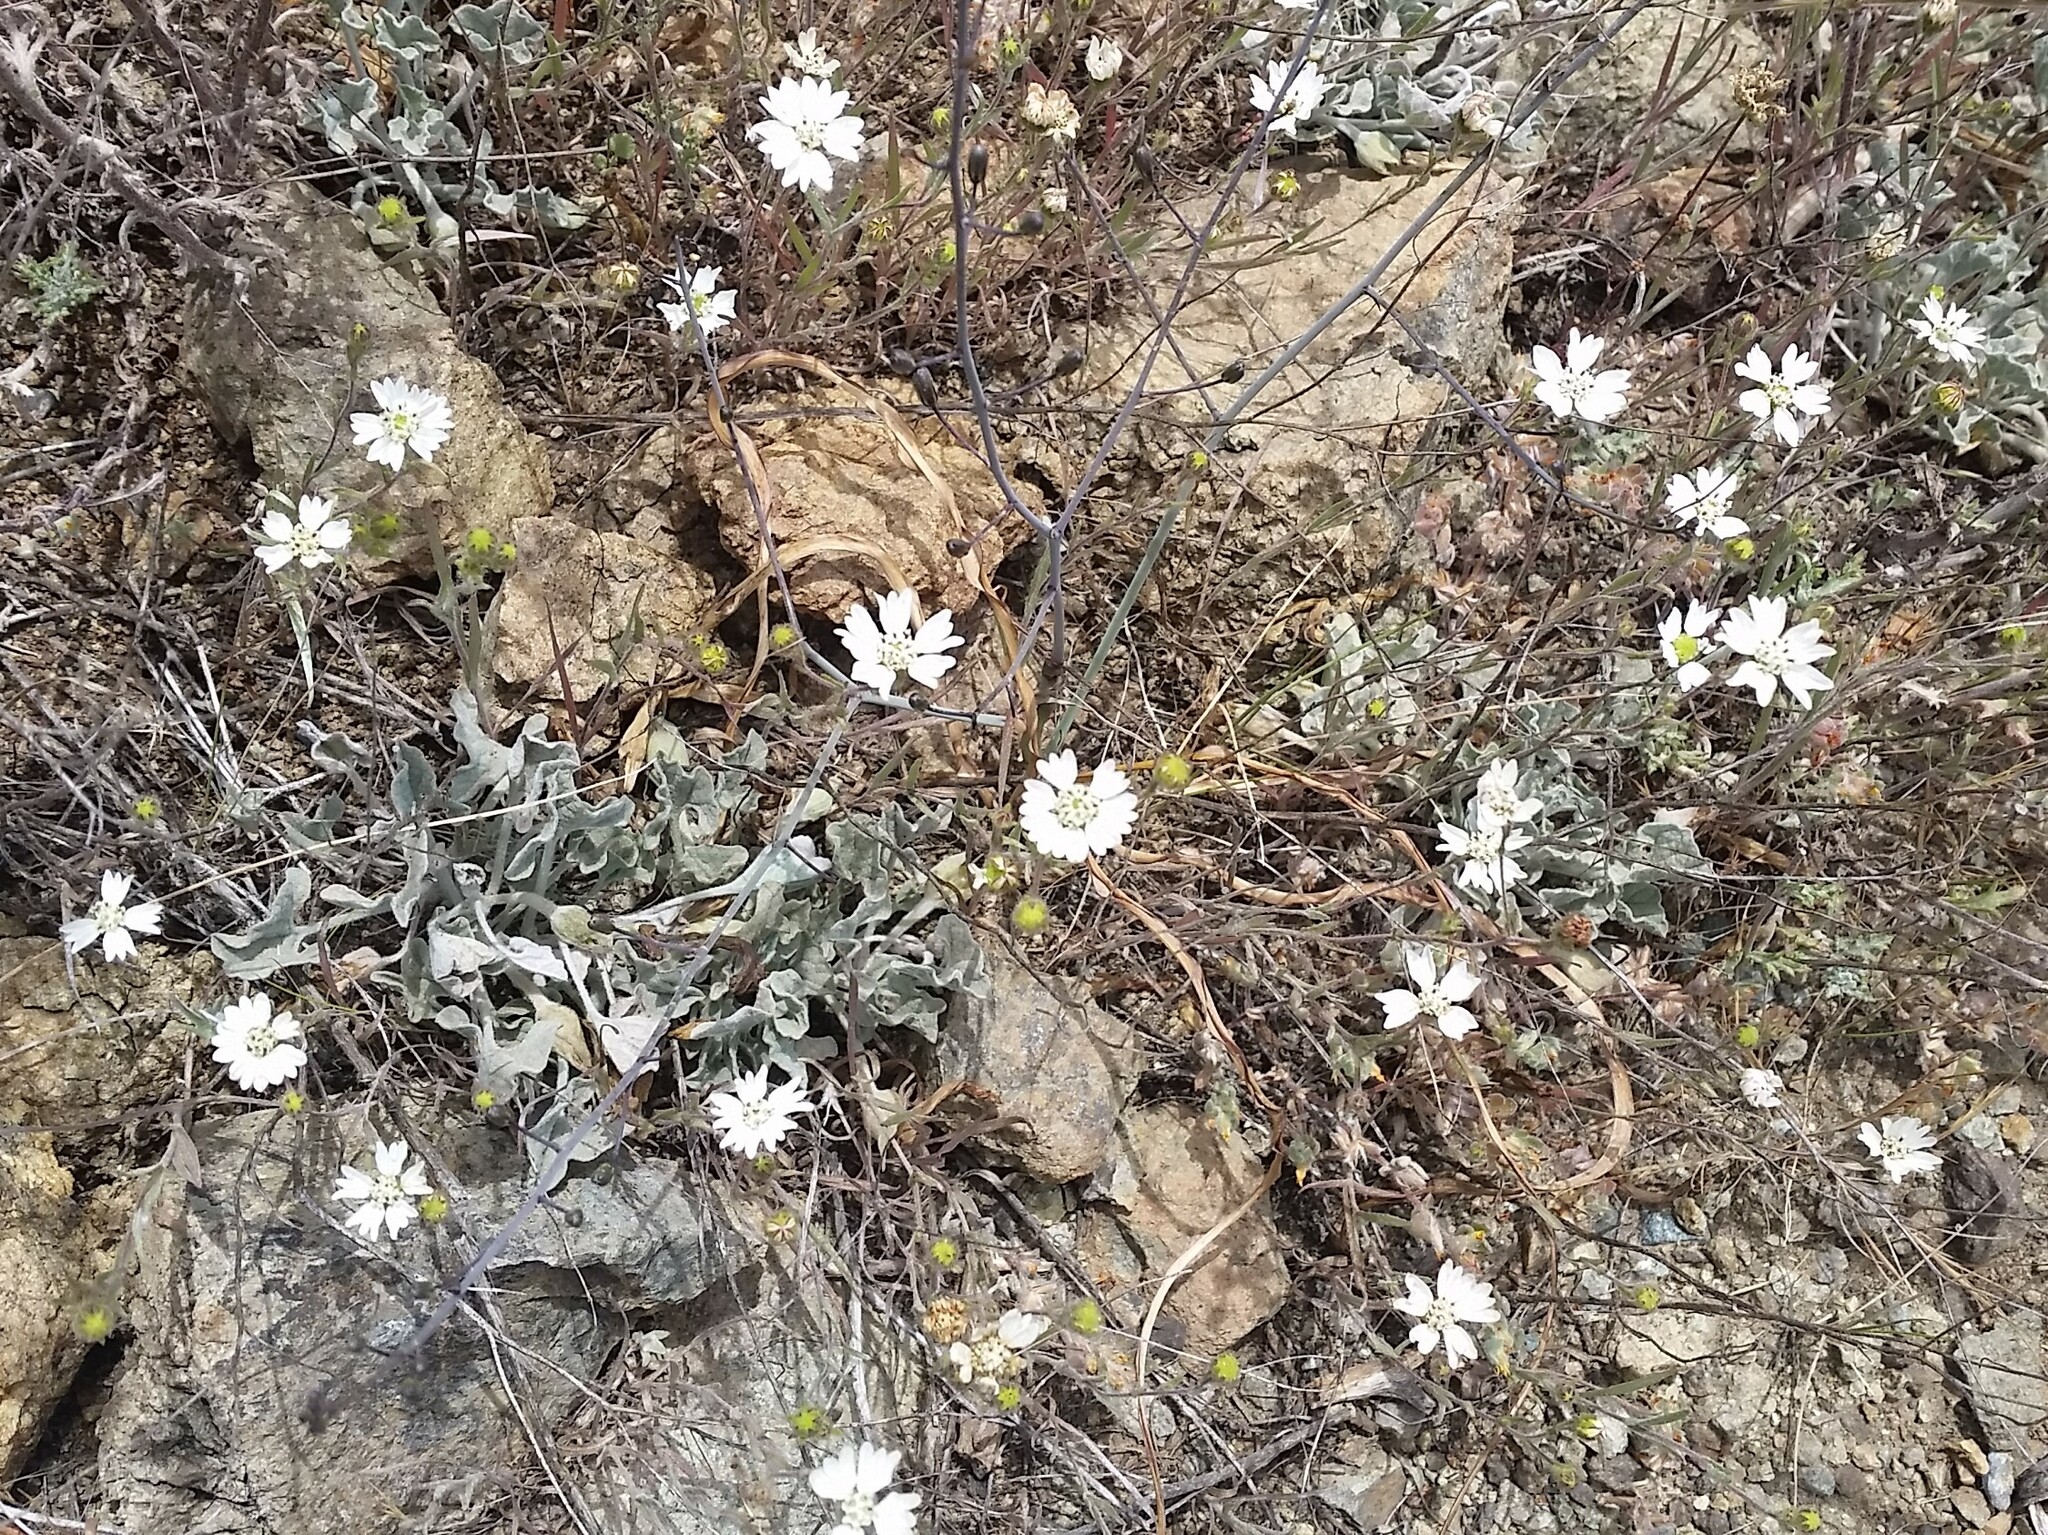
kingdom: Plantae
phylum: Tracheophyta
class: Magnoliopsida
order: Asterales
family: Asteraceae
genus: Hemizonia
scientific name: Hemizonia congesta
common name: Hayfield tarweed
